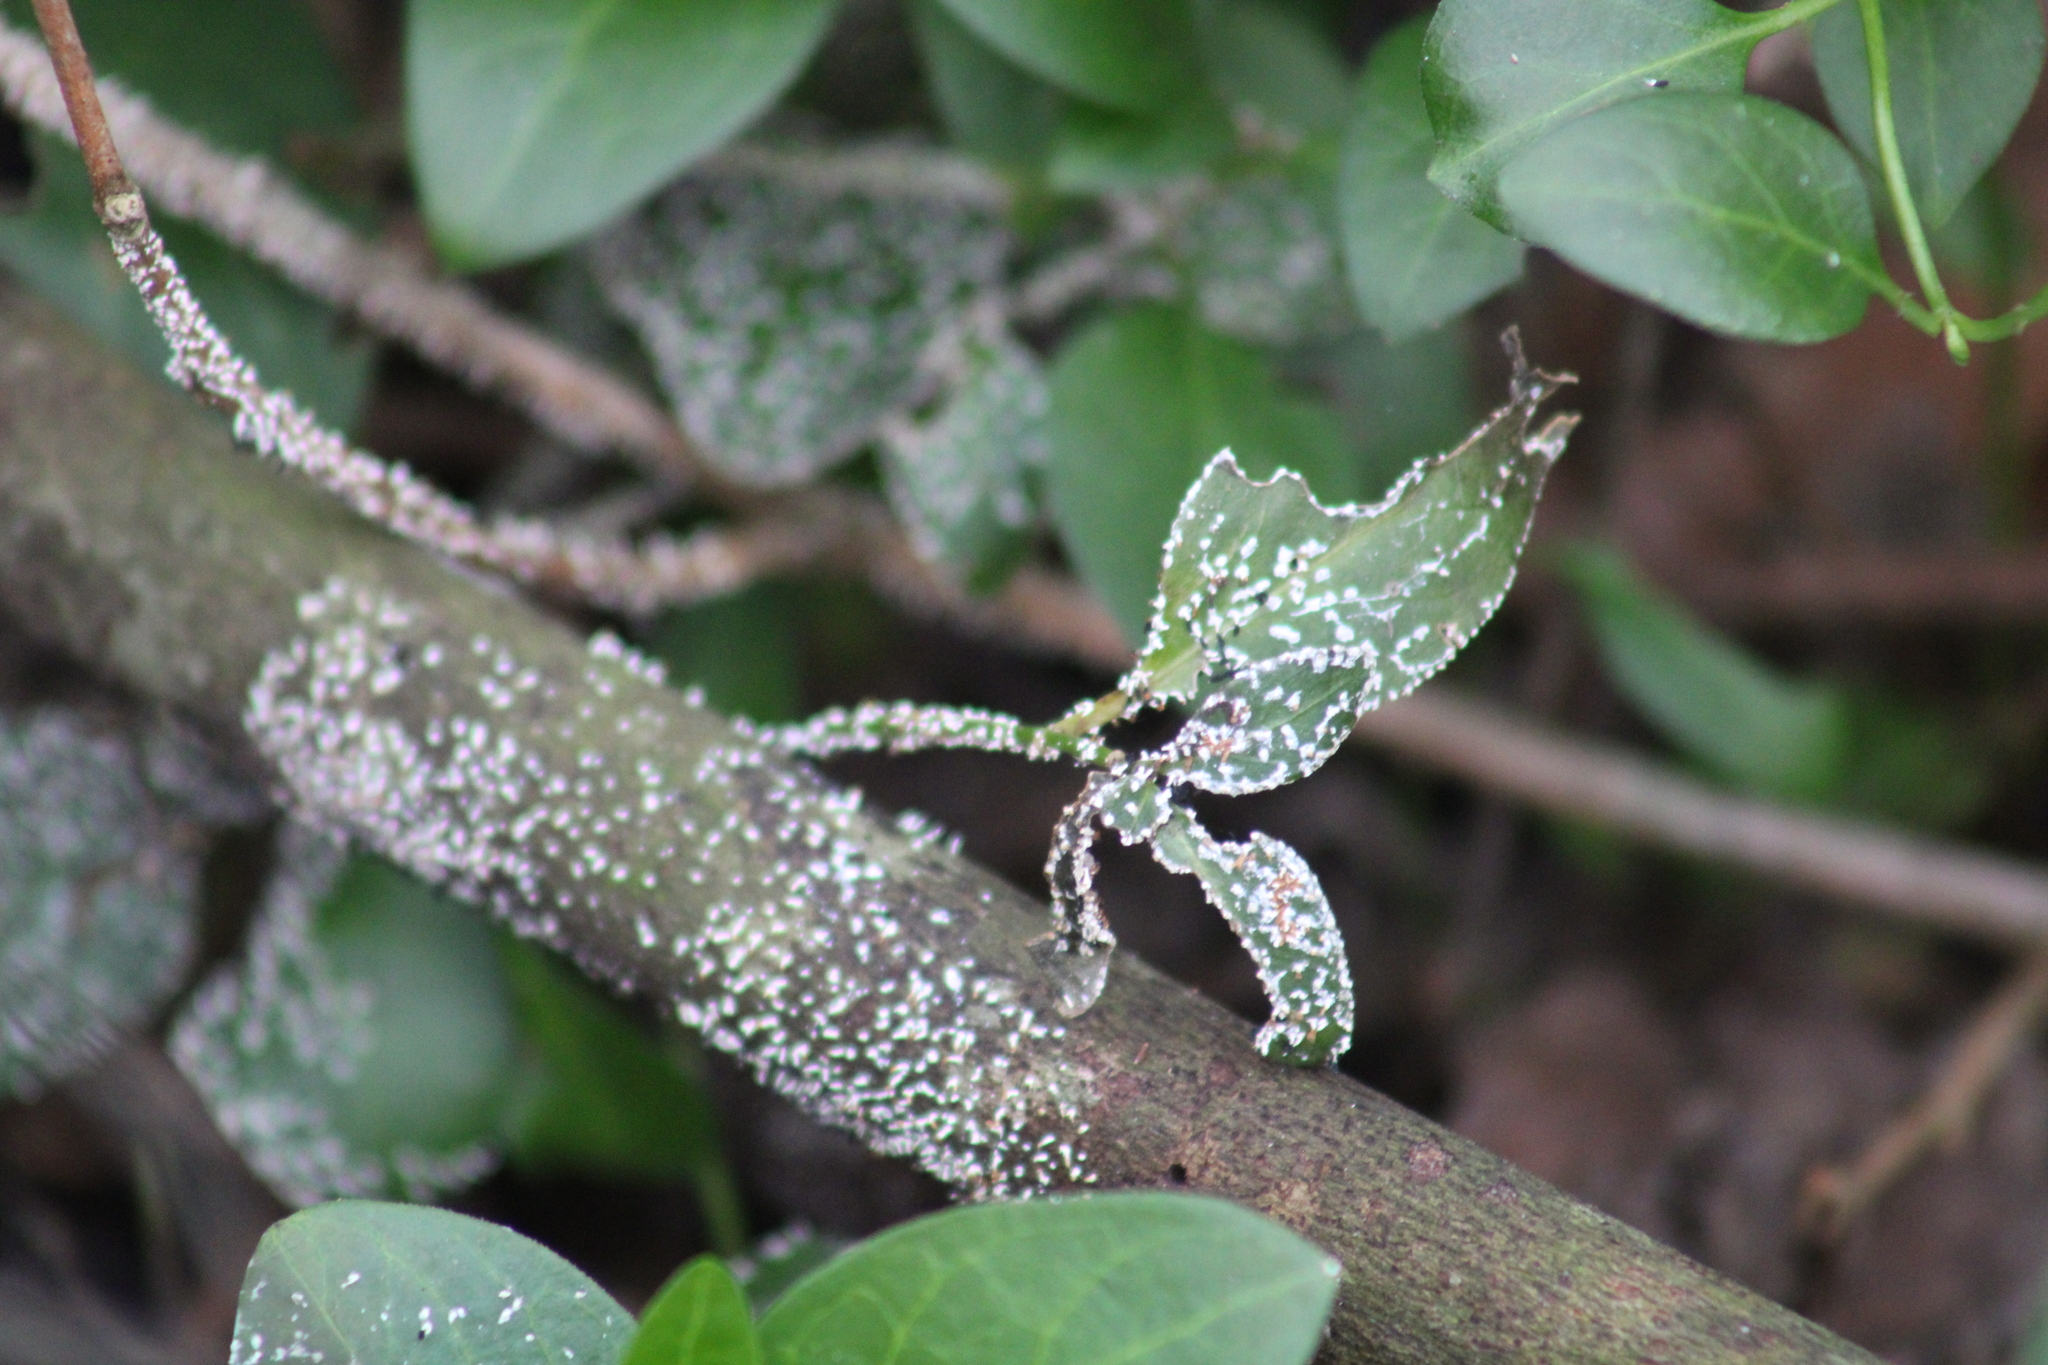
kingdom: Protozoa
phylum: Mycetozoa
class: Myxomycetes
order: Physarales
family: Didymiaceae
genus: Diachea
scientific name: Diachea leucopodia
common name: White-footed slime
